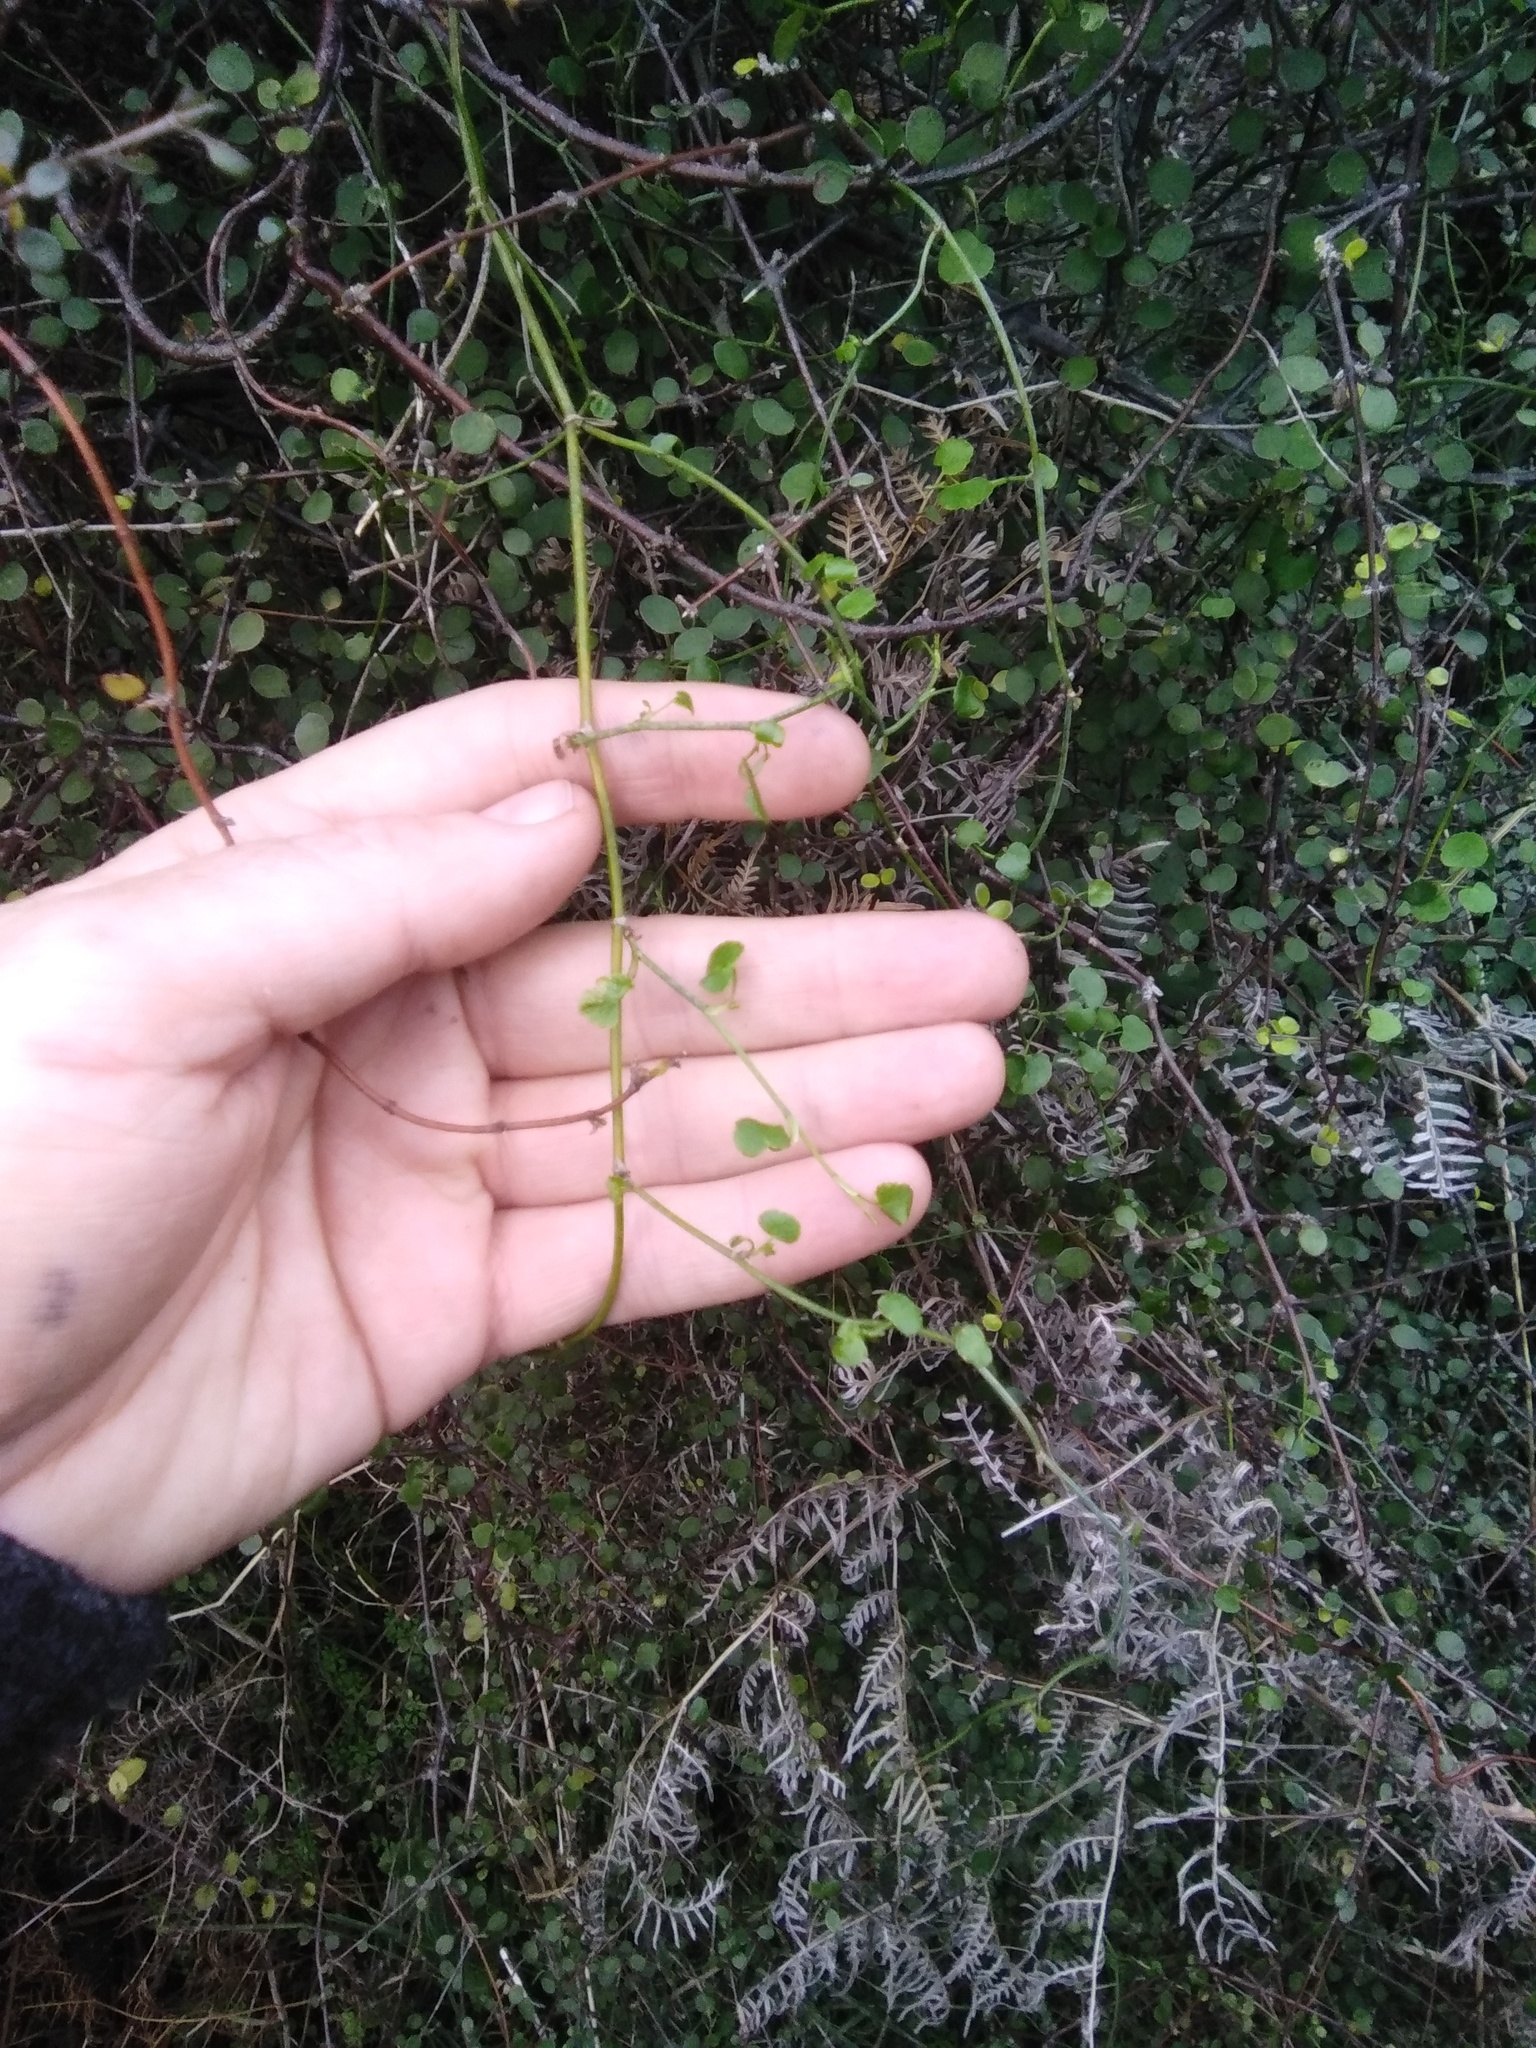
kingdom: Plantae
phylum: Tracheophyta
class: Magnoliopsida
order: Apiales
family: Apiaceae
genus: Scandia
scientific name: Scandia geniculata
